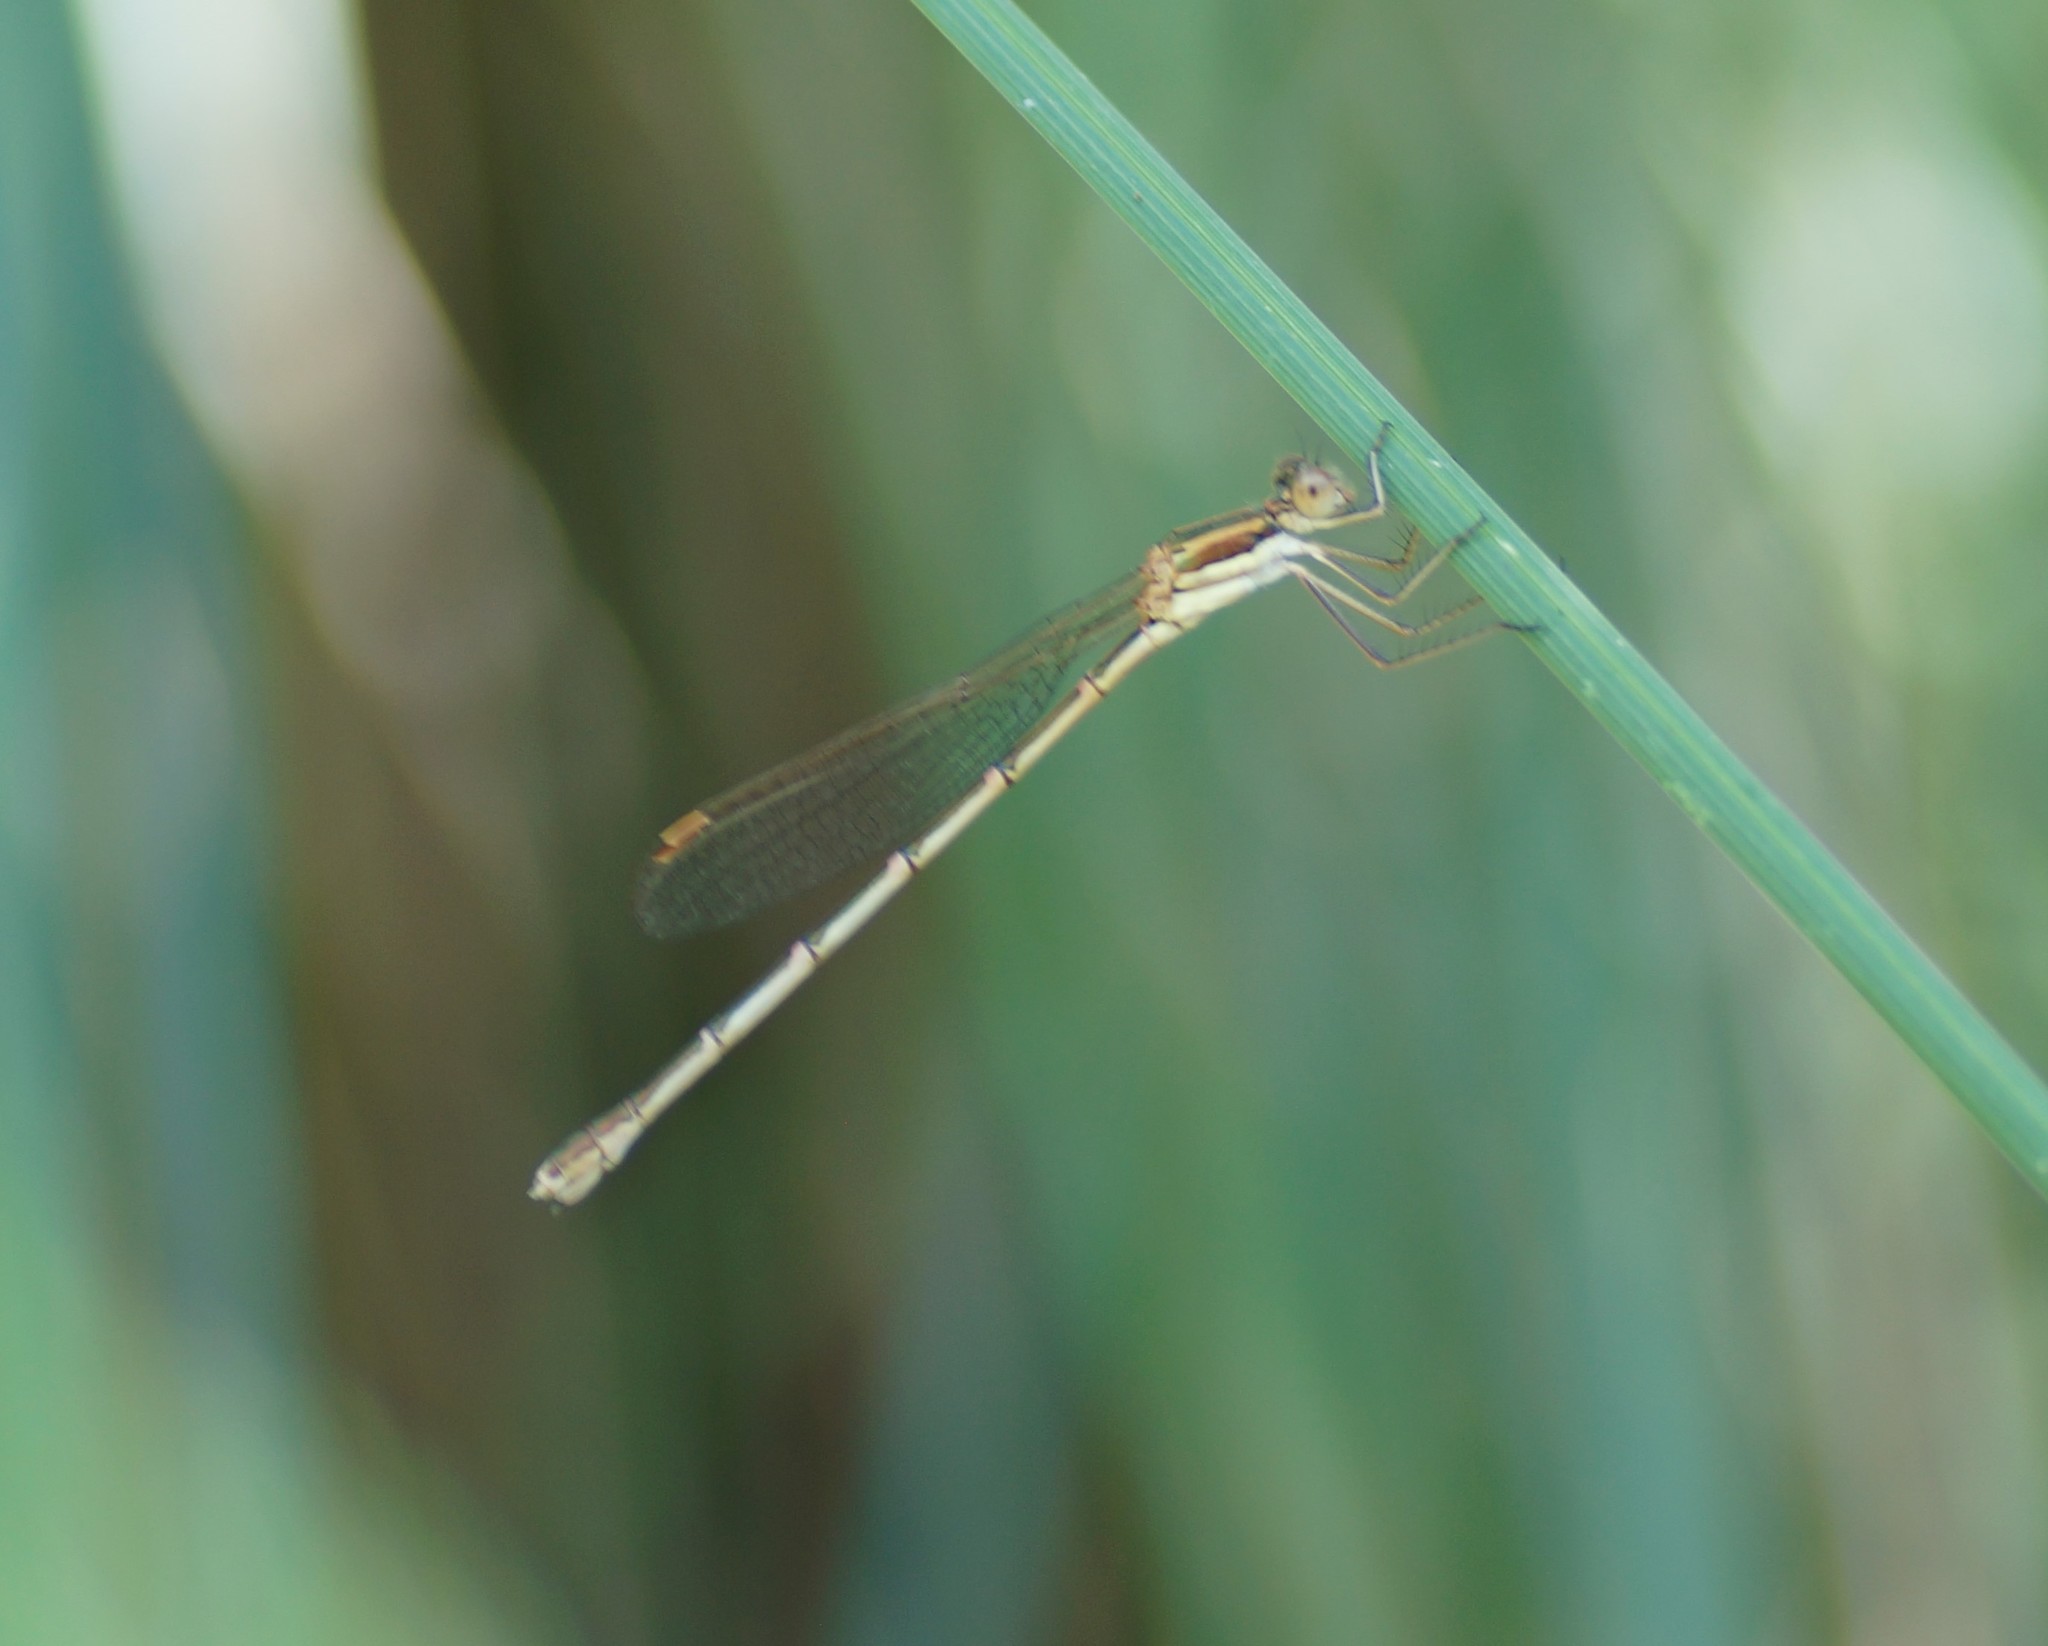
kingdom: Animalia
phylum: Arthropoda
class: Insecta
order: Odonata
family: Lestidae
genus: Austrolestes
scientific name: Austrolestes analis
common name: Slender ringtail
